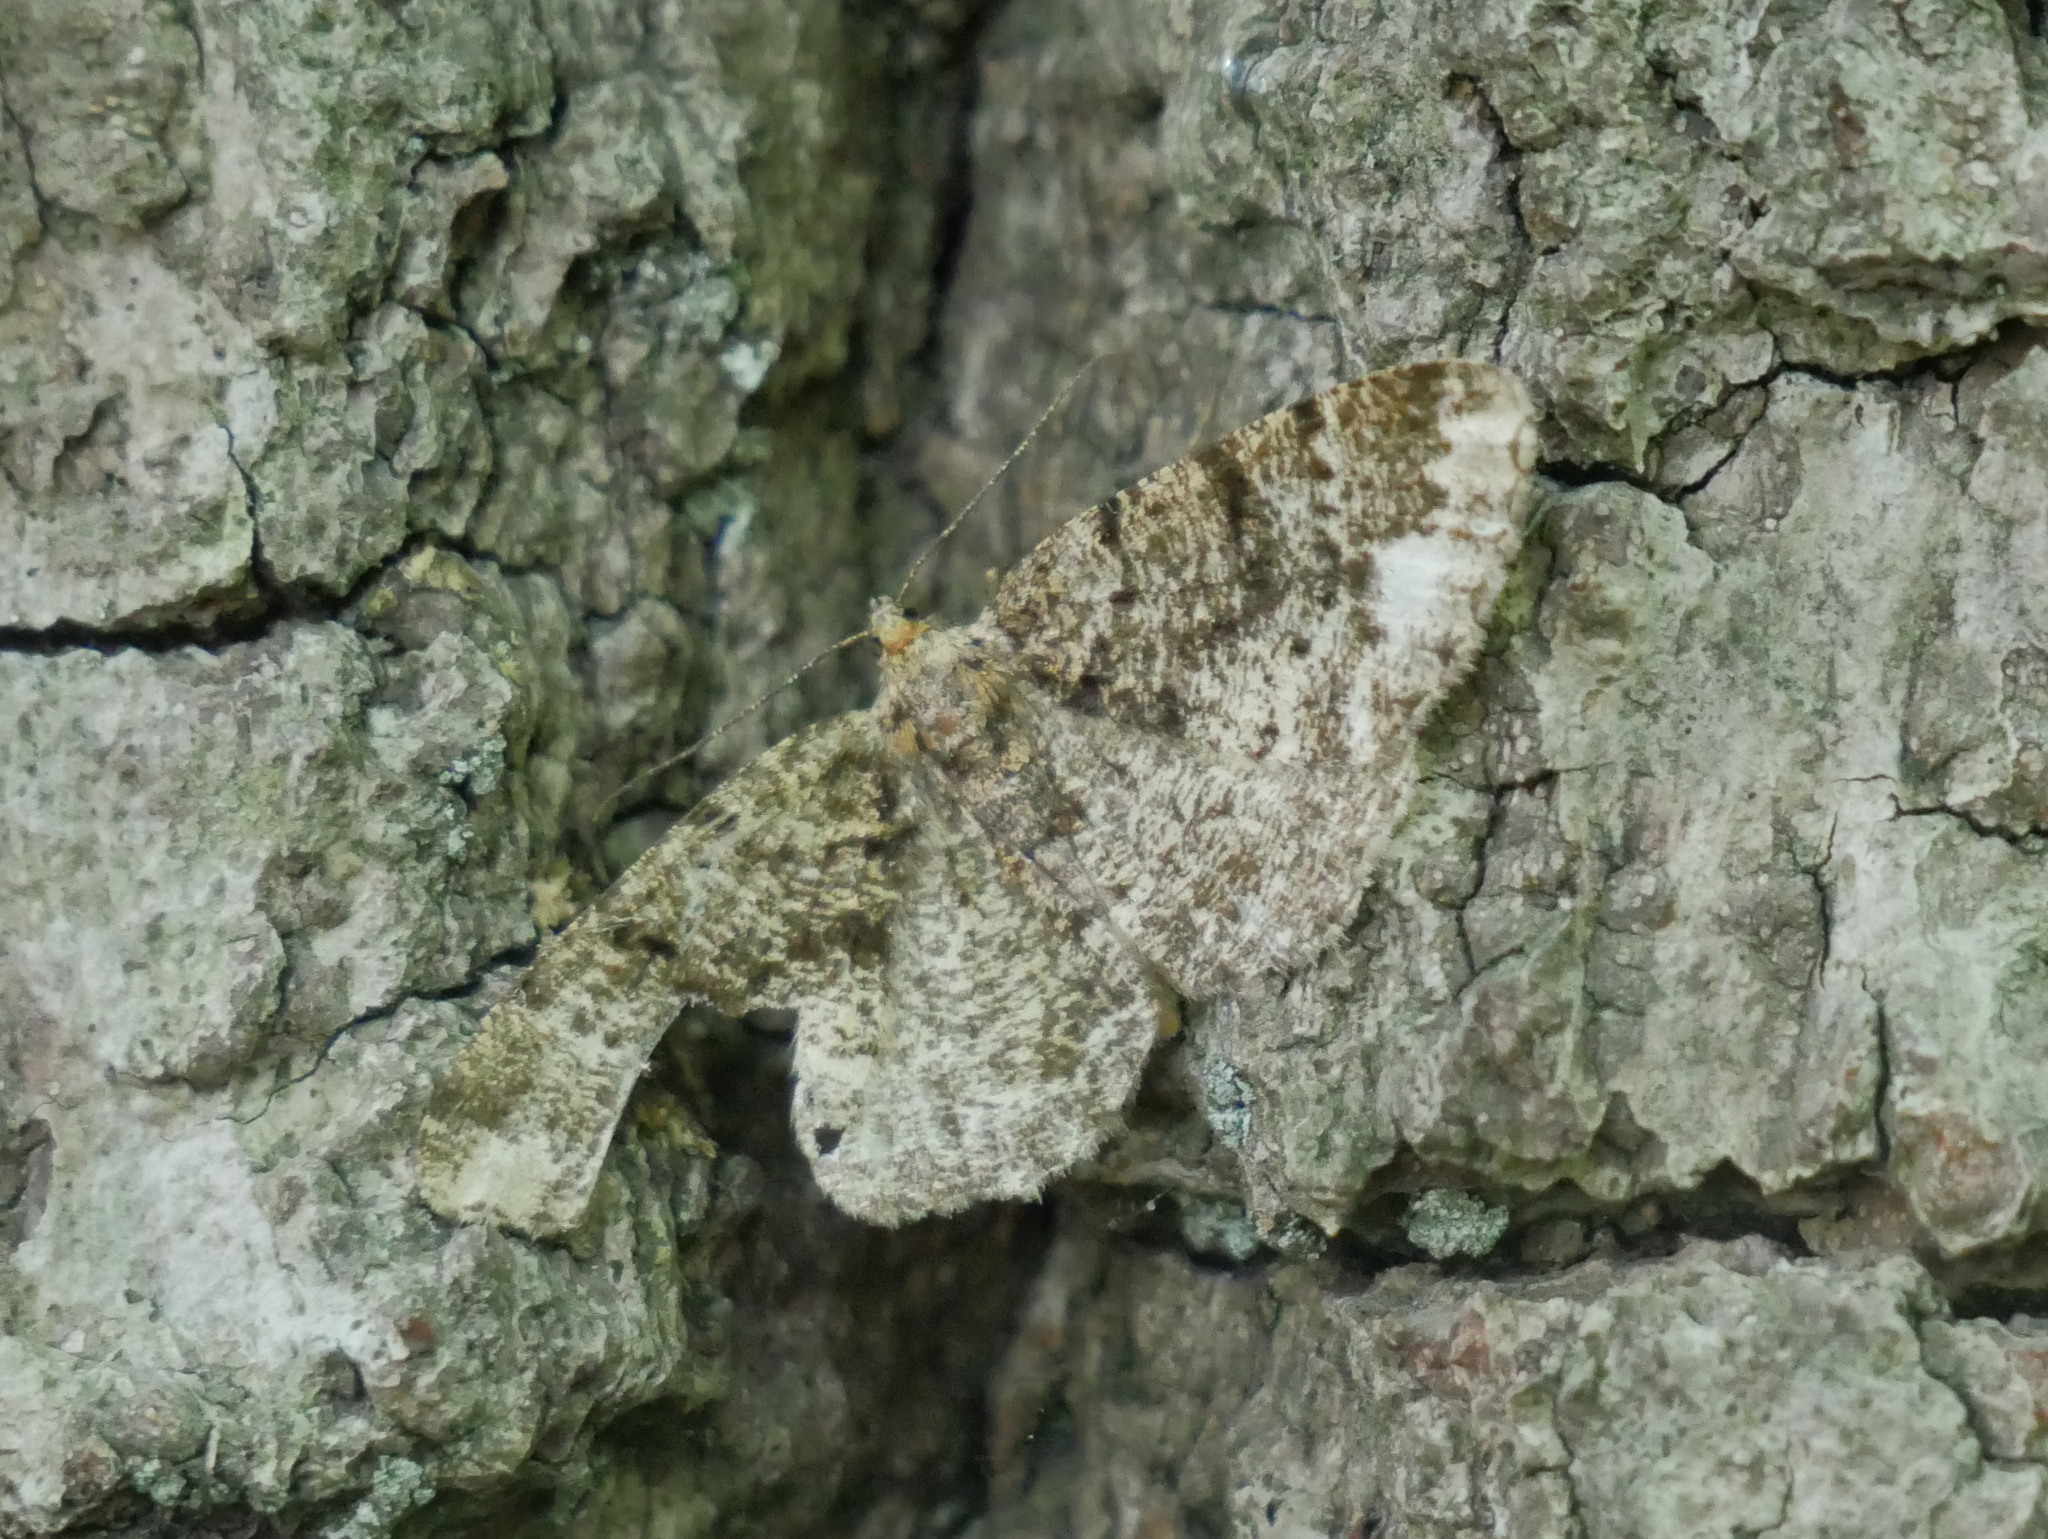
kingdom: Animalia
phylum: Arthropoda
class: Insecta
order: Lepidoptera
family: Geometridae
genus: Parectropis
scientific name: Parectropis similaria
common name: Brindled white-spot
